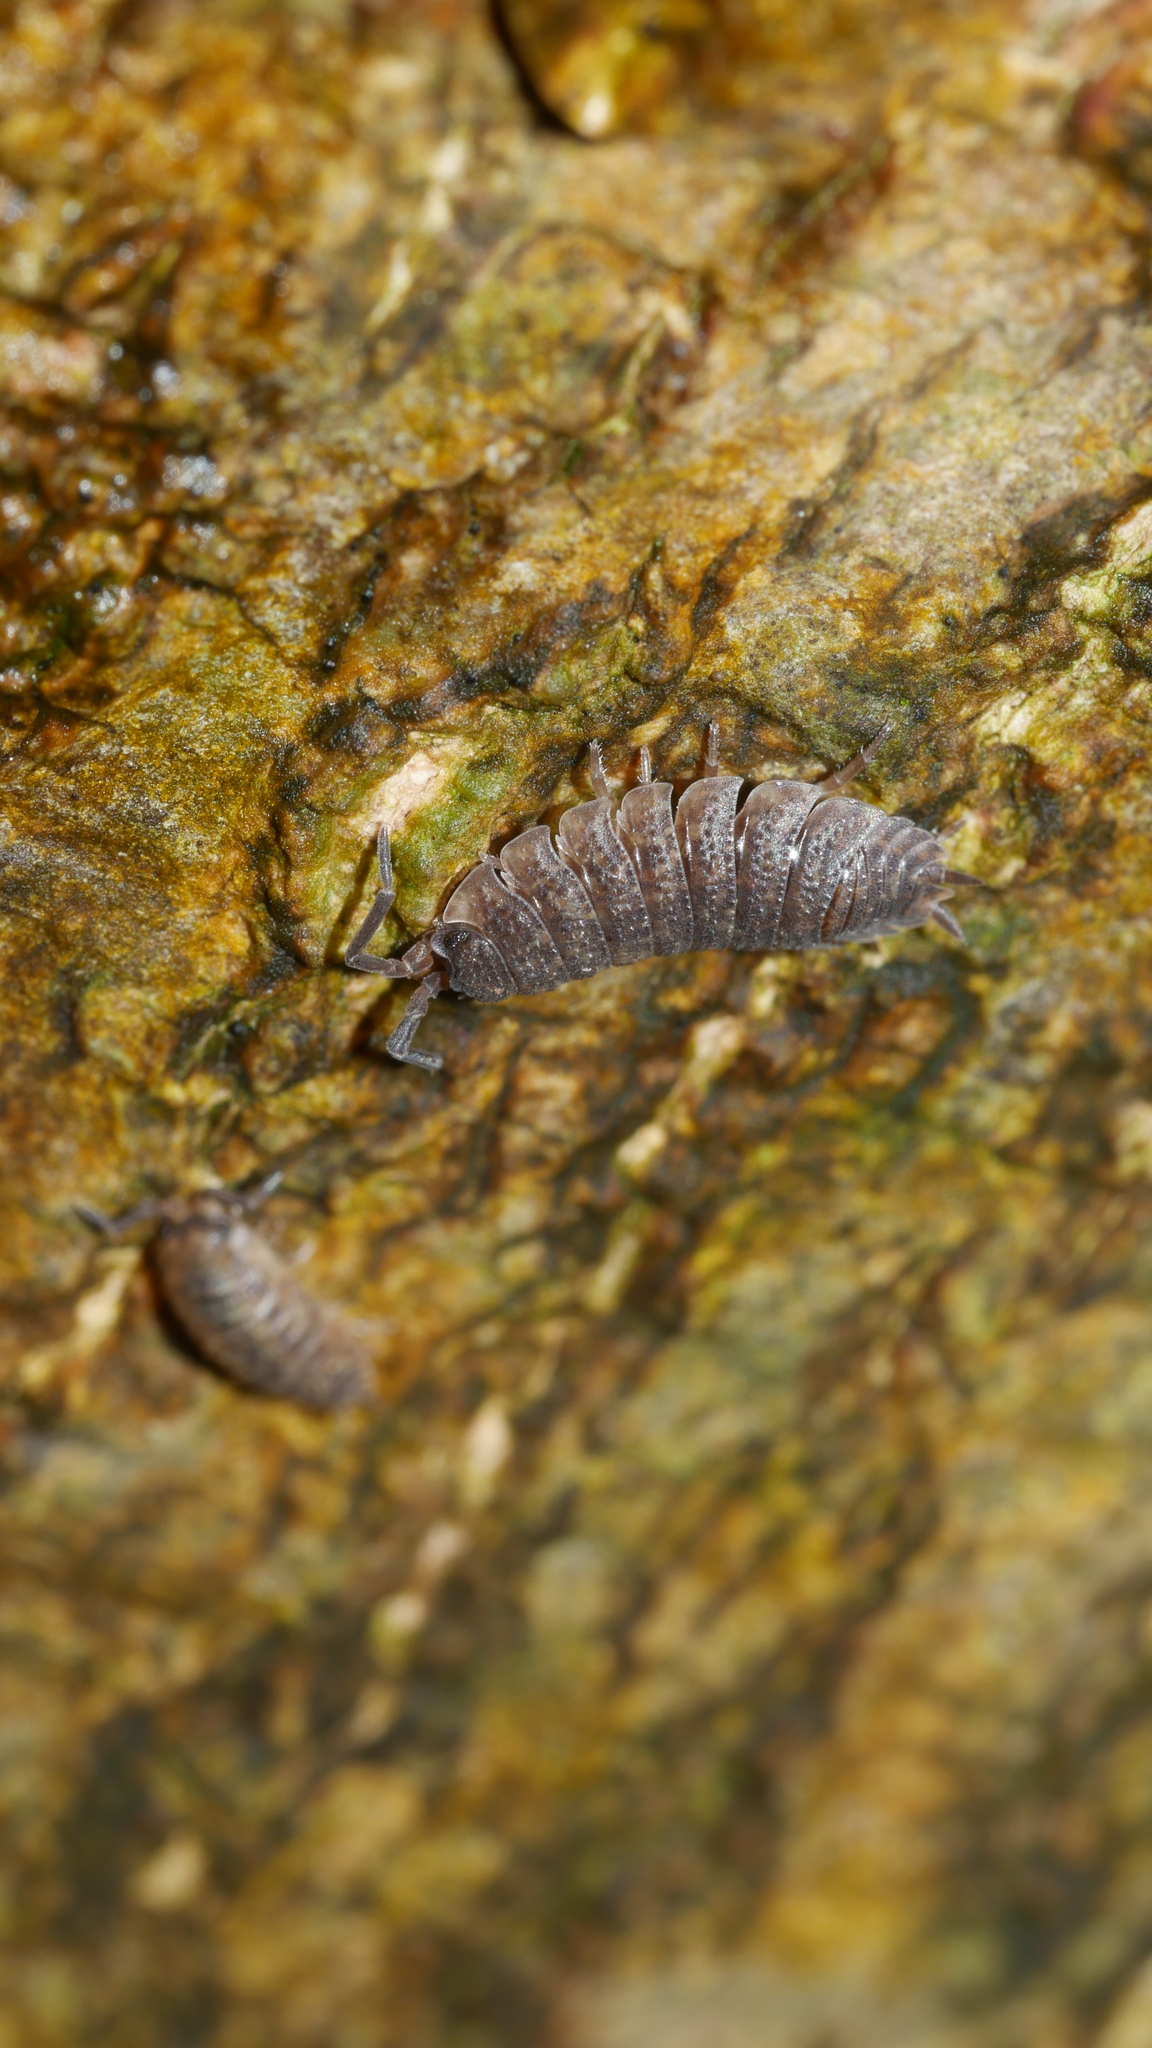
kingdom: Animalia
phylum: Arthropoda
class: Malacostraca
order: Isopoda
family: Porcellionidae
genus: Porcellio
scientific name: Porcellio scaber
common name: Common rough woodlouse
